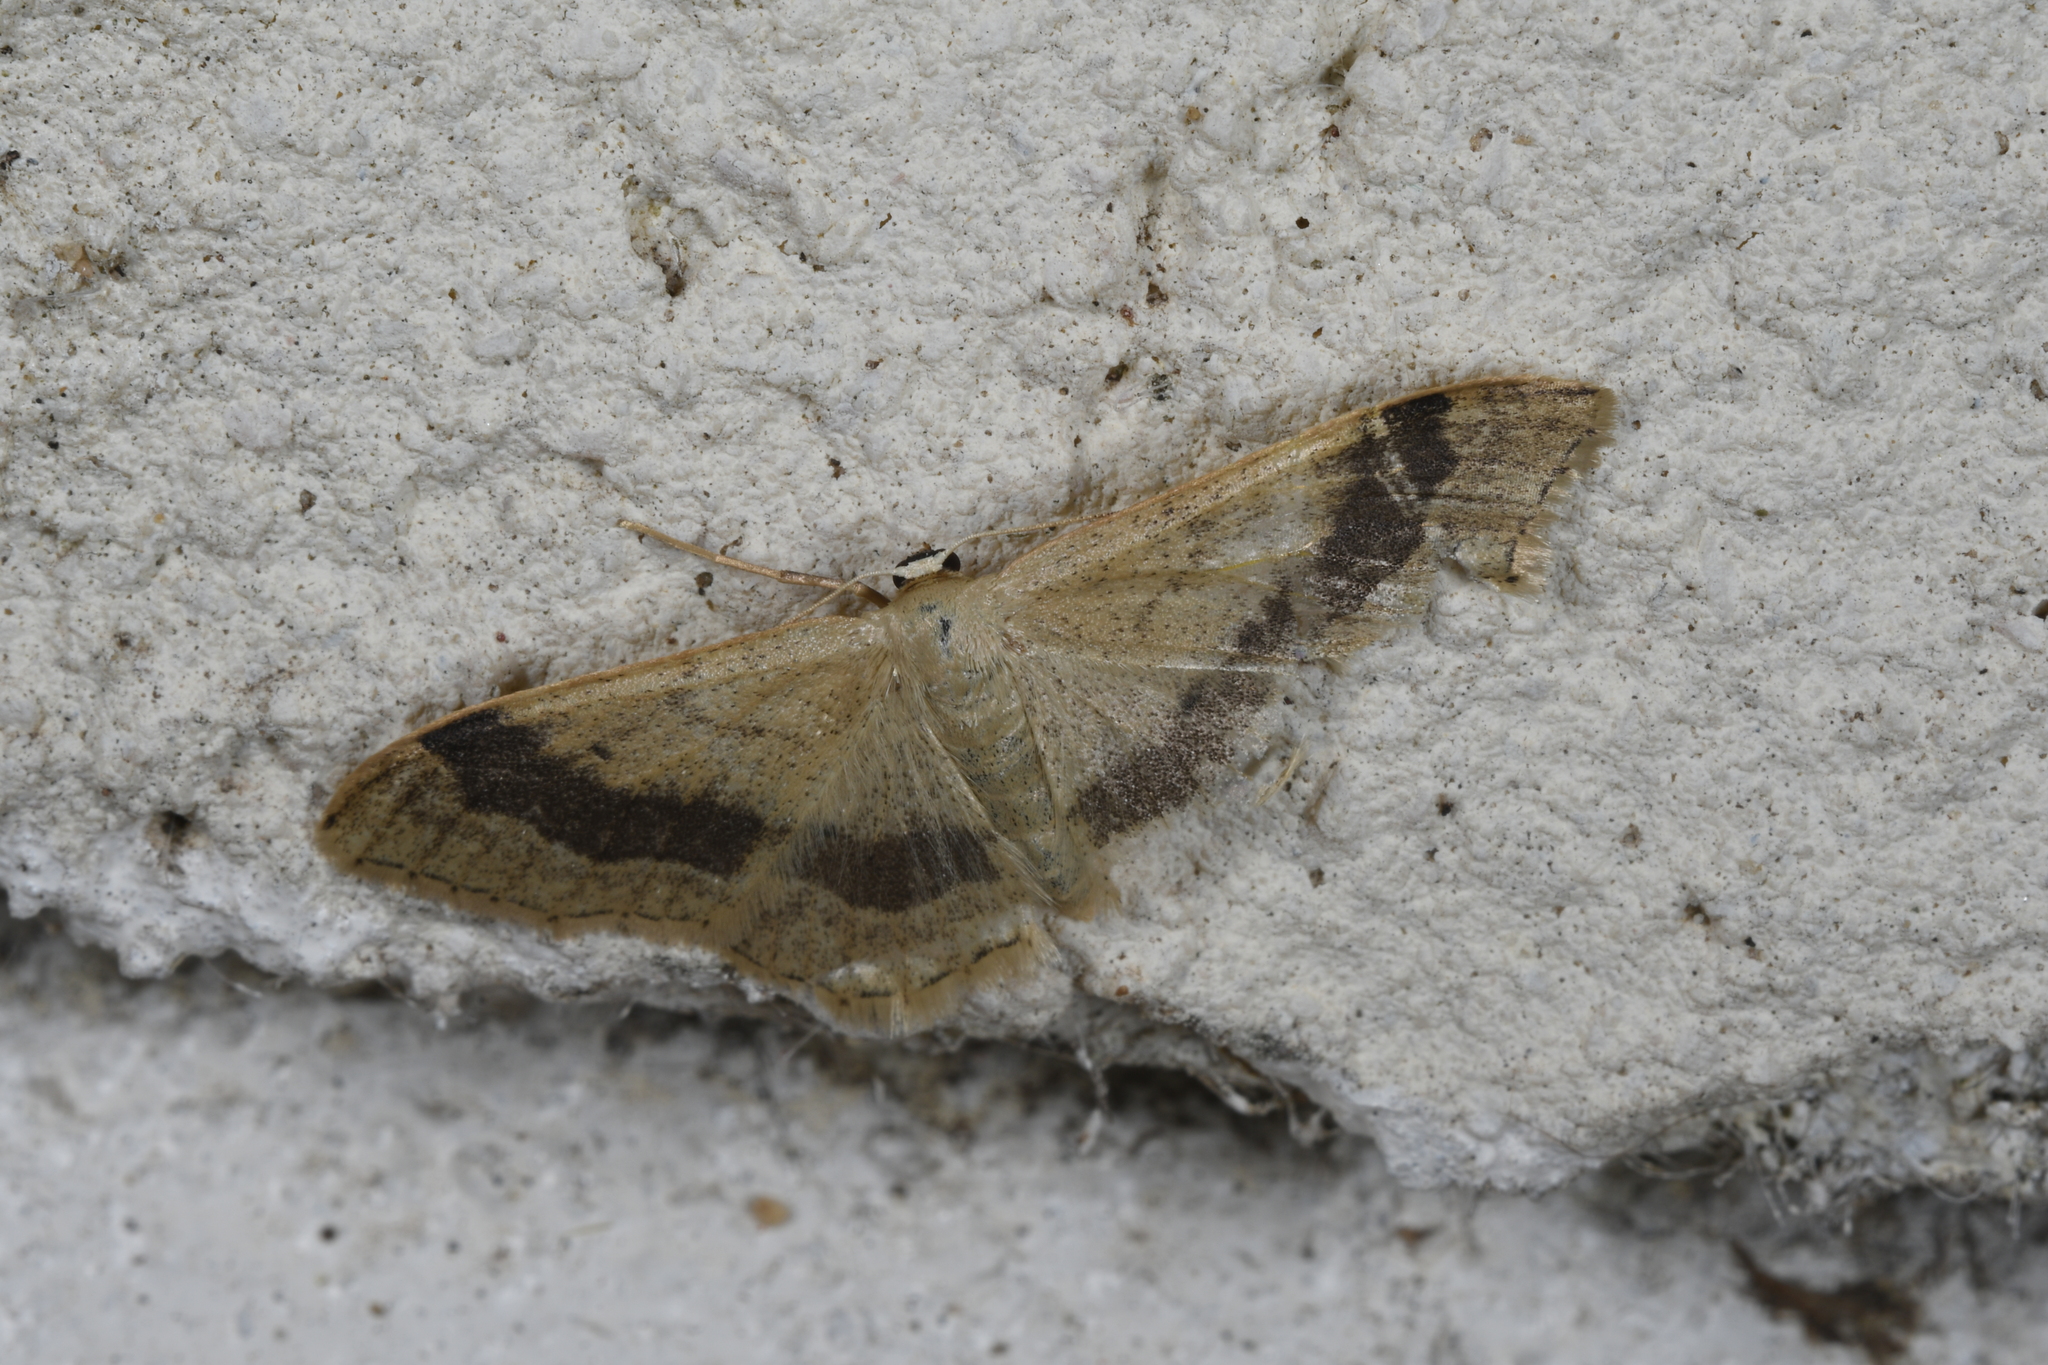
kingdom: Animalia
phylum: Arthropoda
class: Insecta
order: Lepidoptera
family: Geometridae
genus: Idaea
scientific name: Idaea aversata
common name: Riband wave
